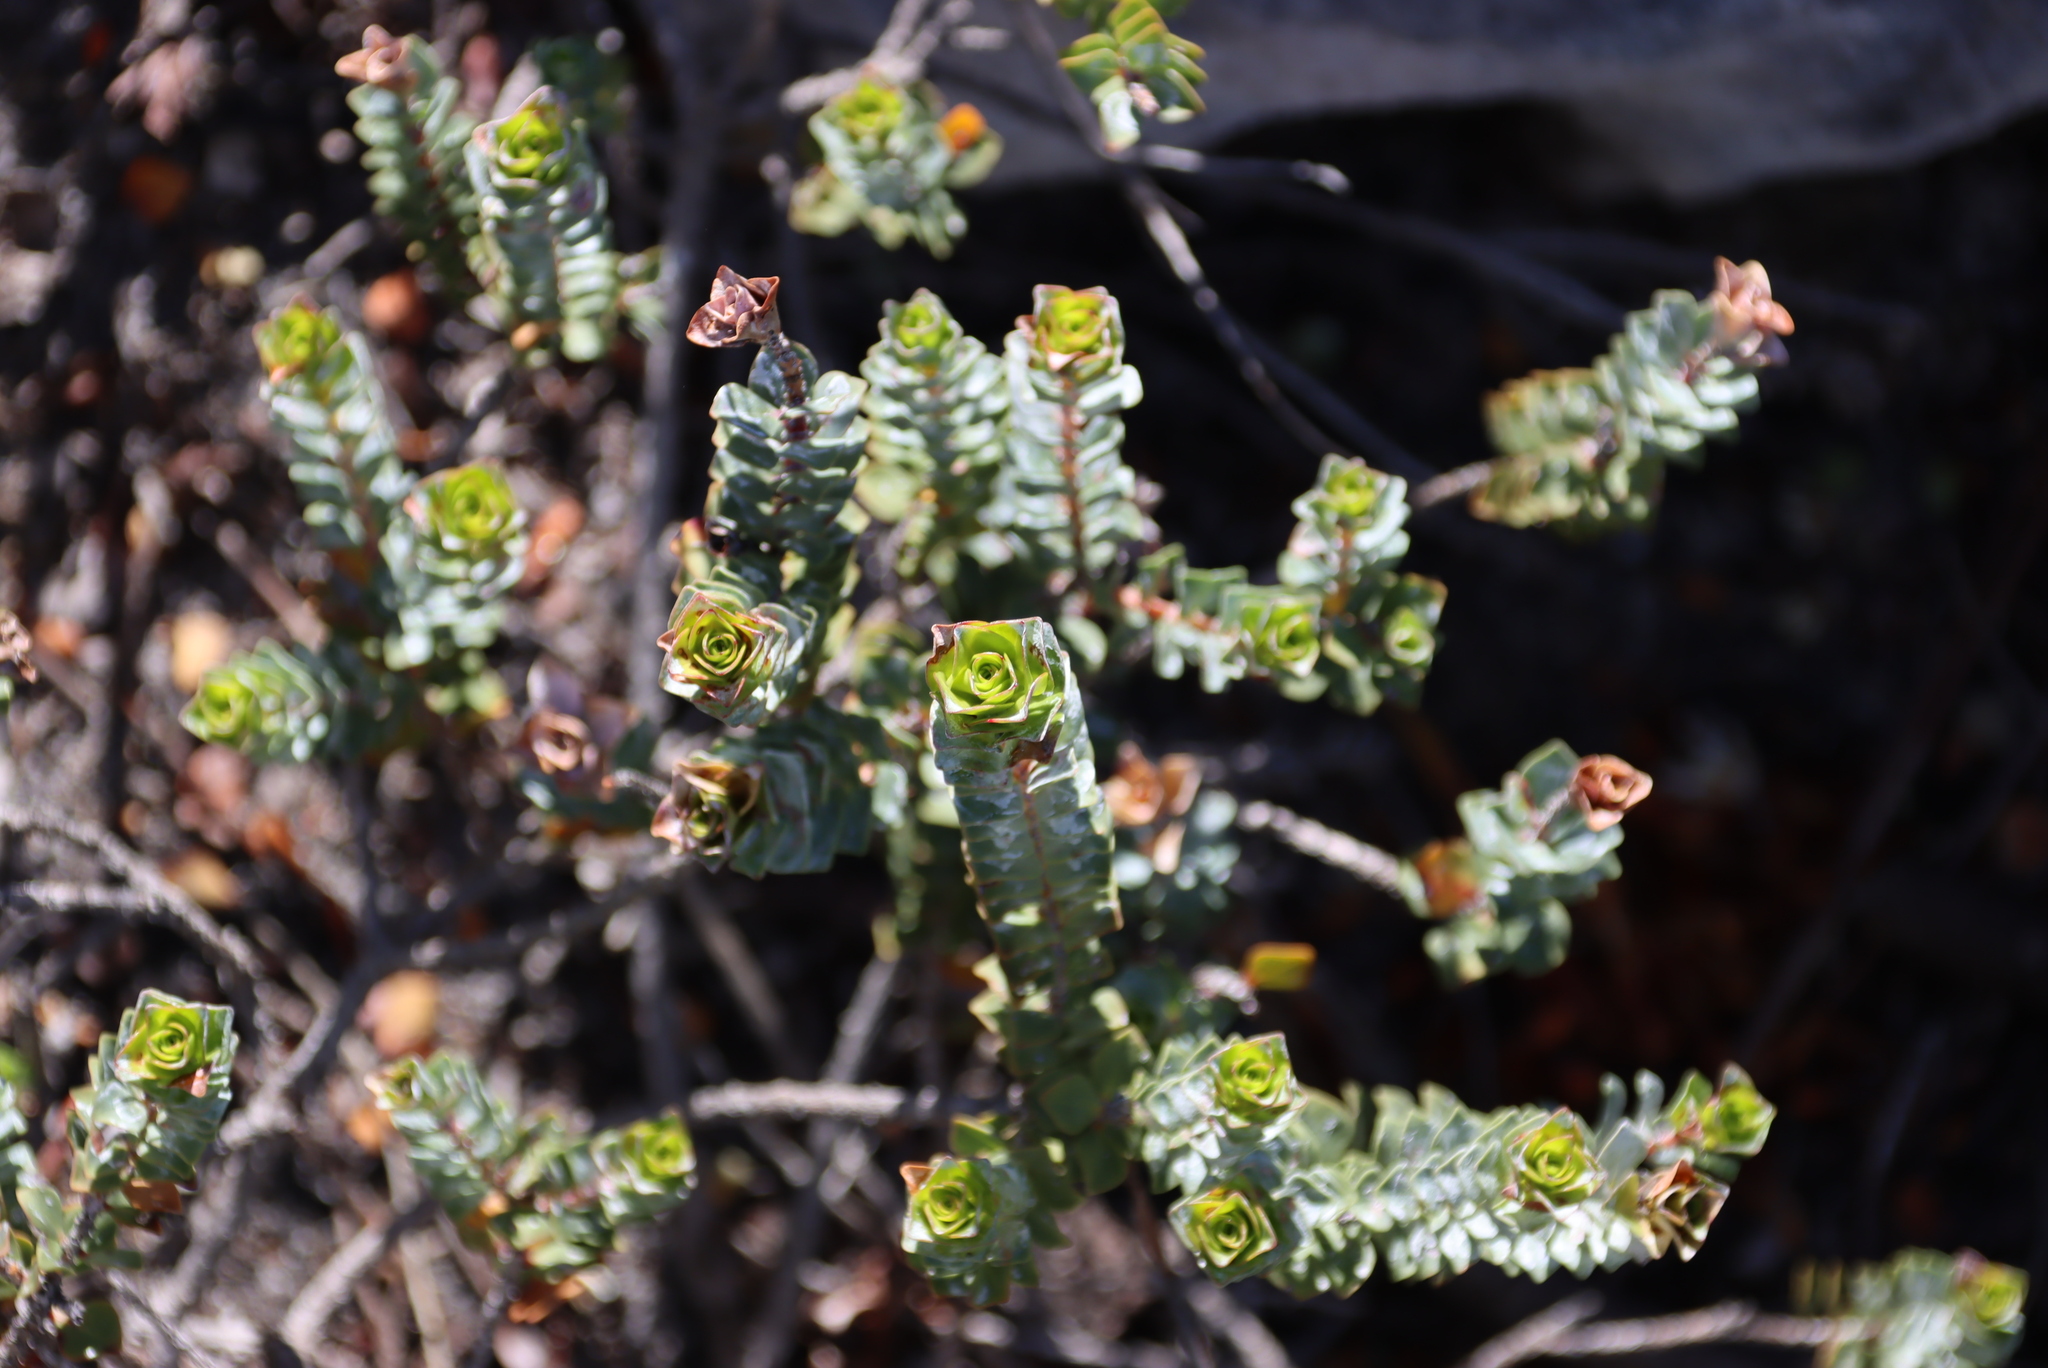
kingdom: Plantae
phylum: Tracheophyta
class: Magnoliopsida
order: Myrtales
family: Penaeaceae
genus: Saltera
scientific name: Saltera sarcocolla
